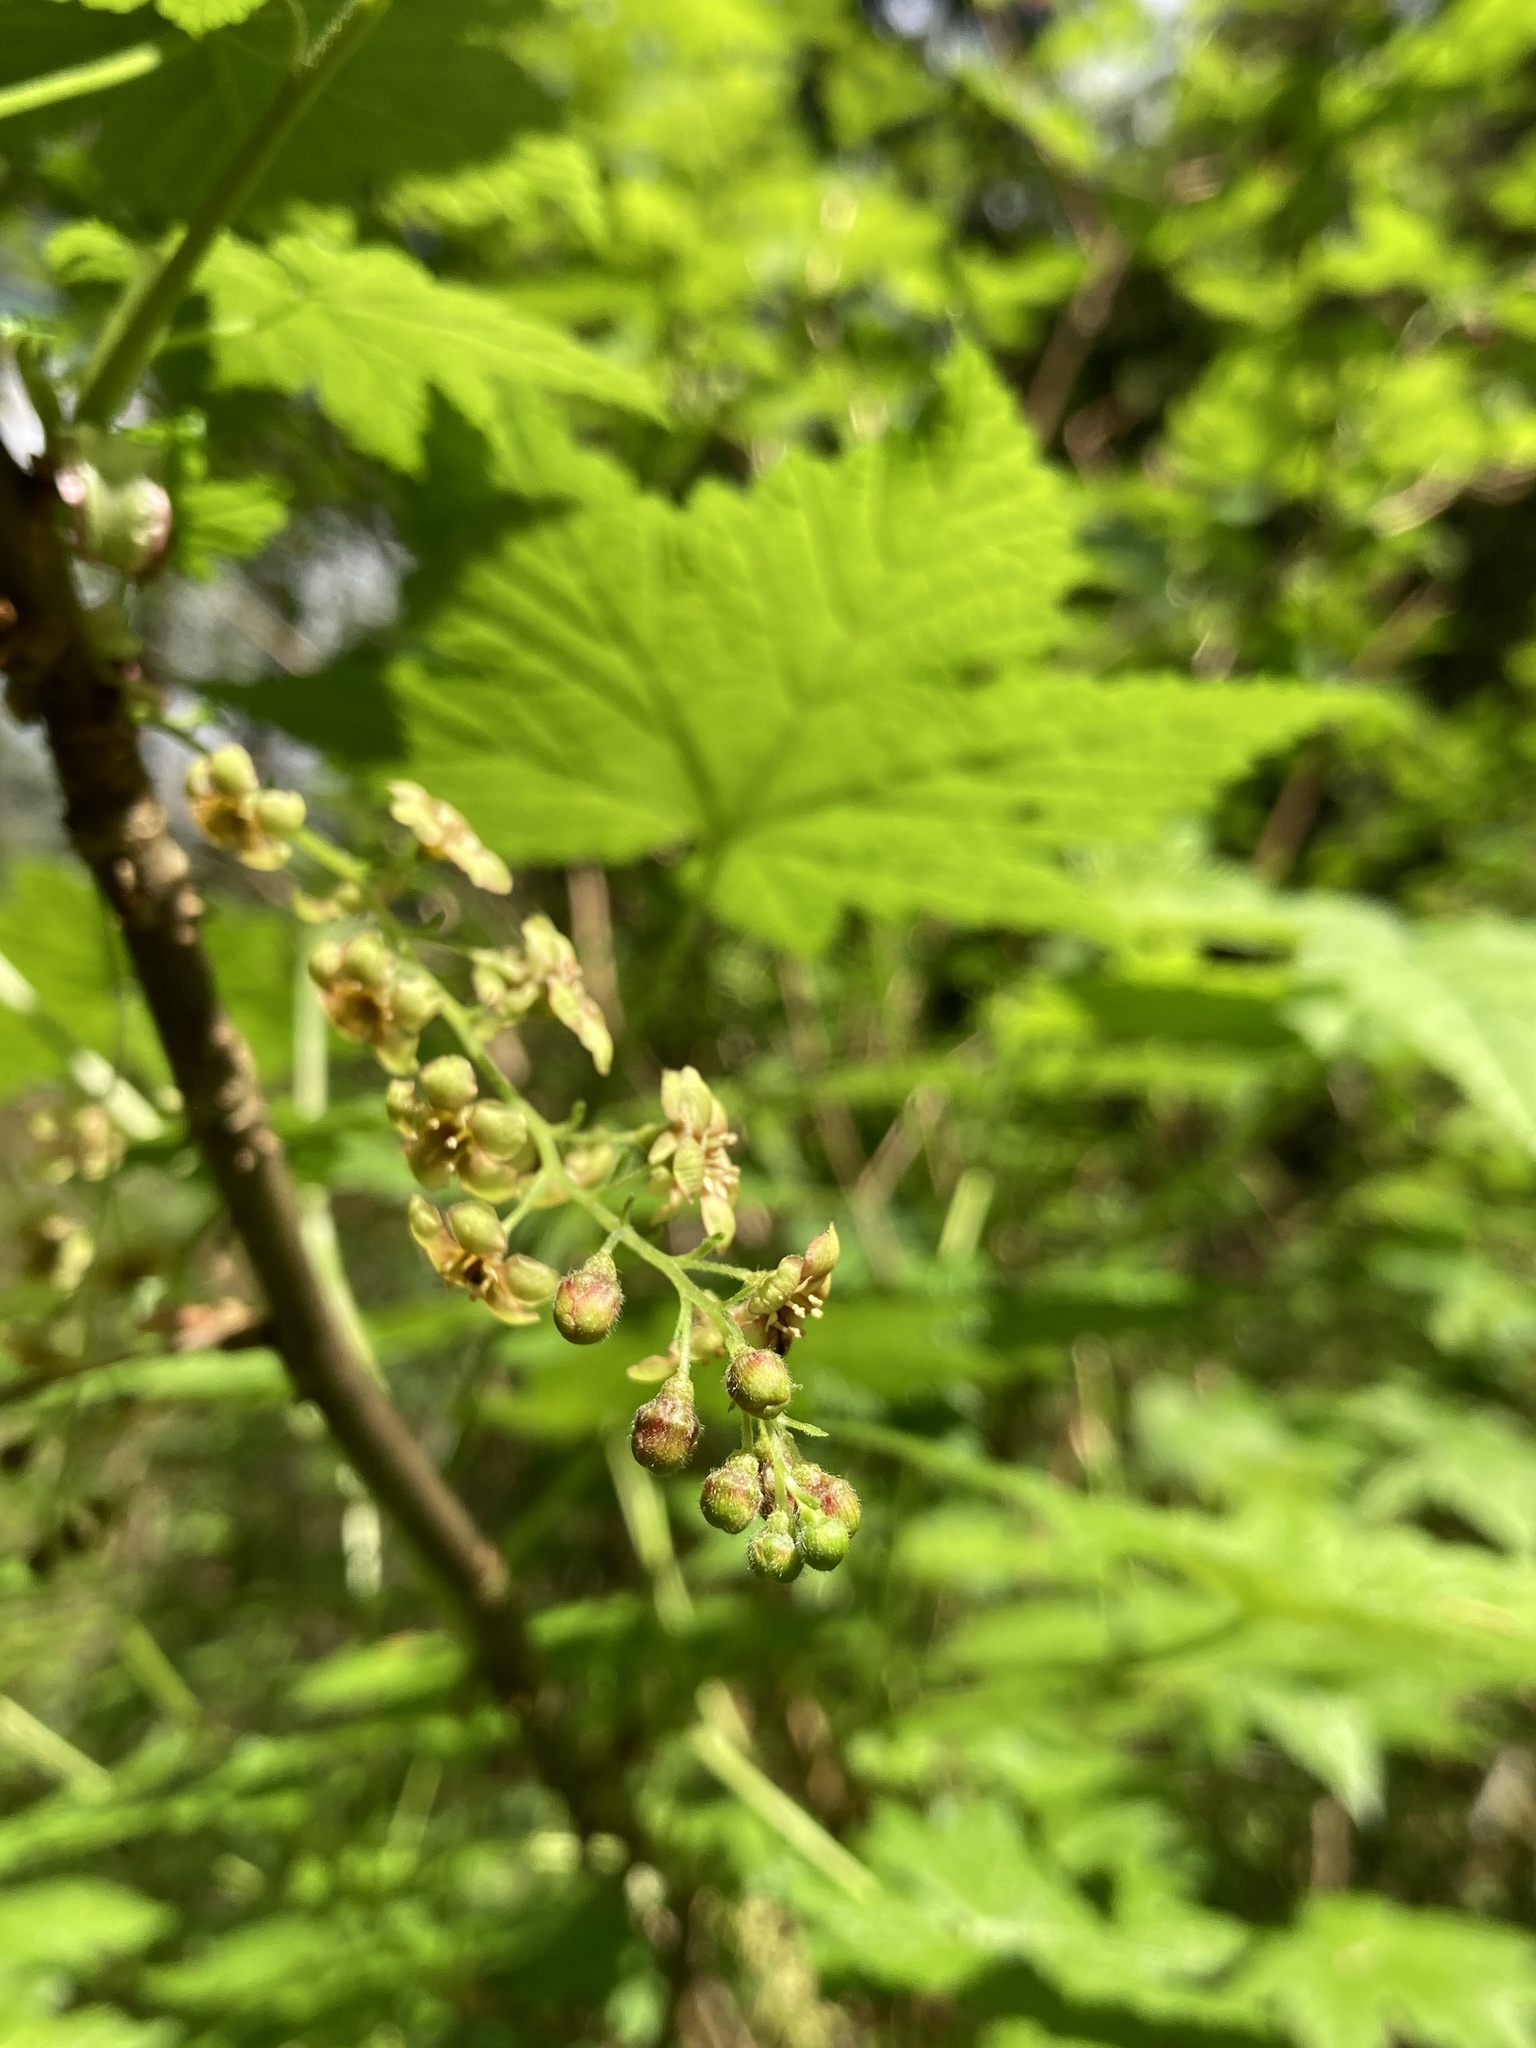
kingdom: Plantae
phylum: Tracheophyta
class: Magnoliopsida
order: Saxifragales
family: Grossulariaceae
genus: Ribes
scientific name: Ribes bracteosum
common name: California black currant
